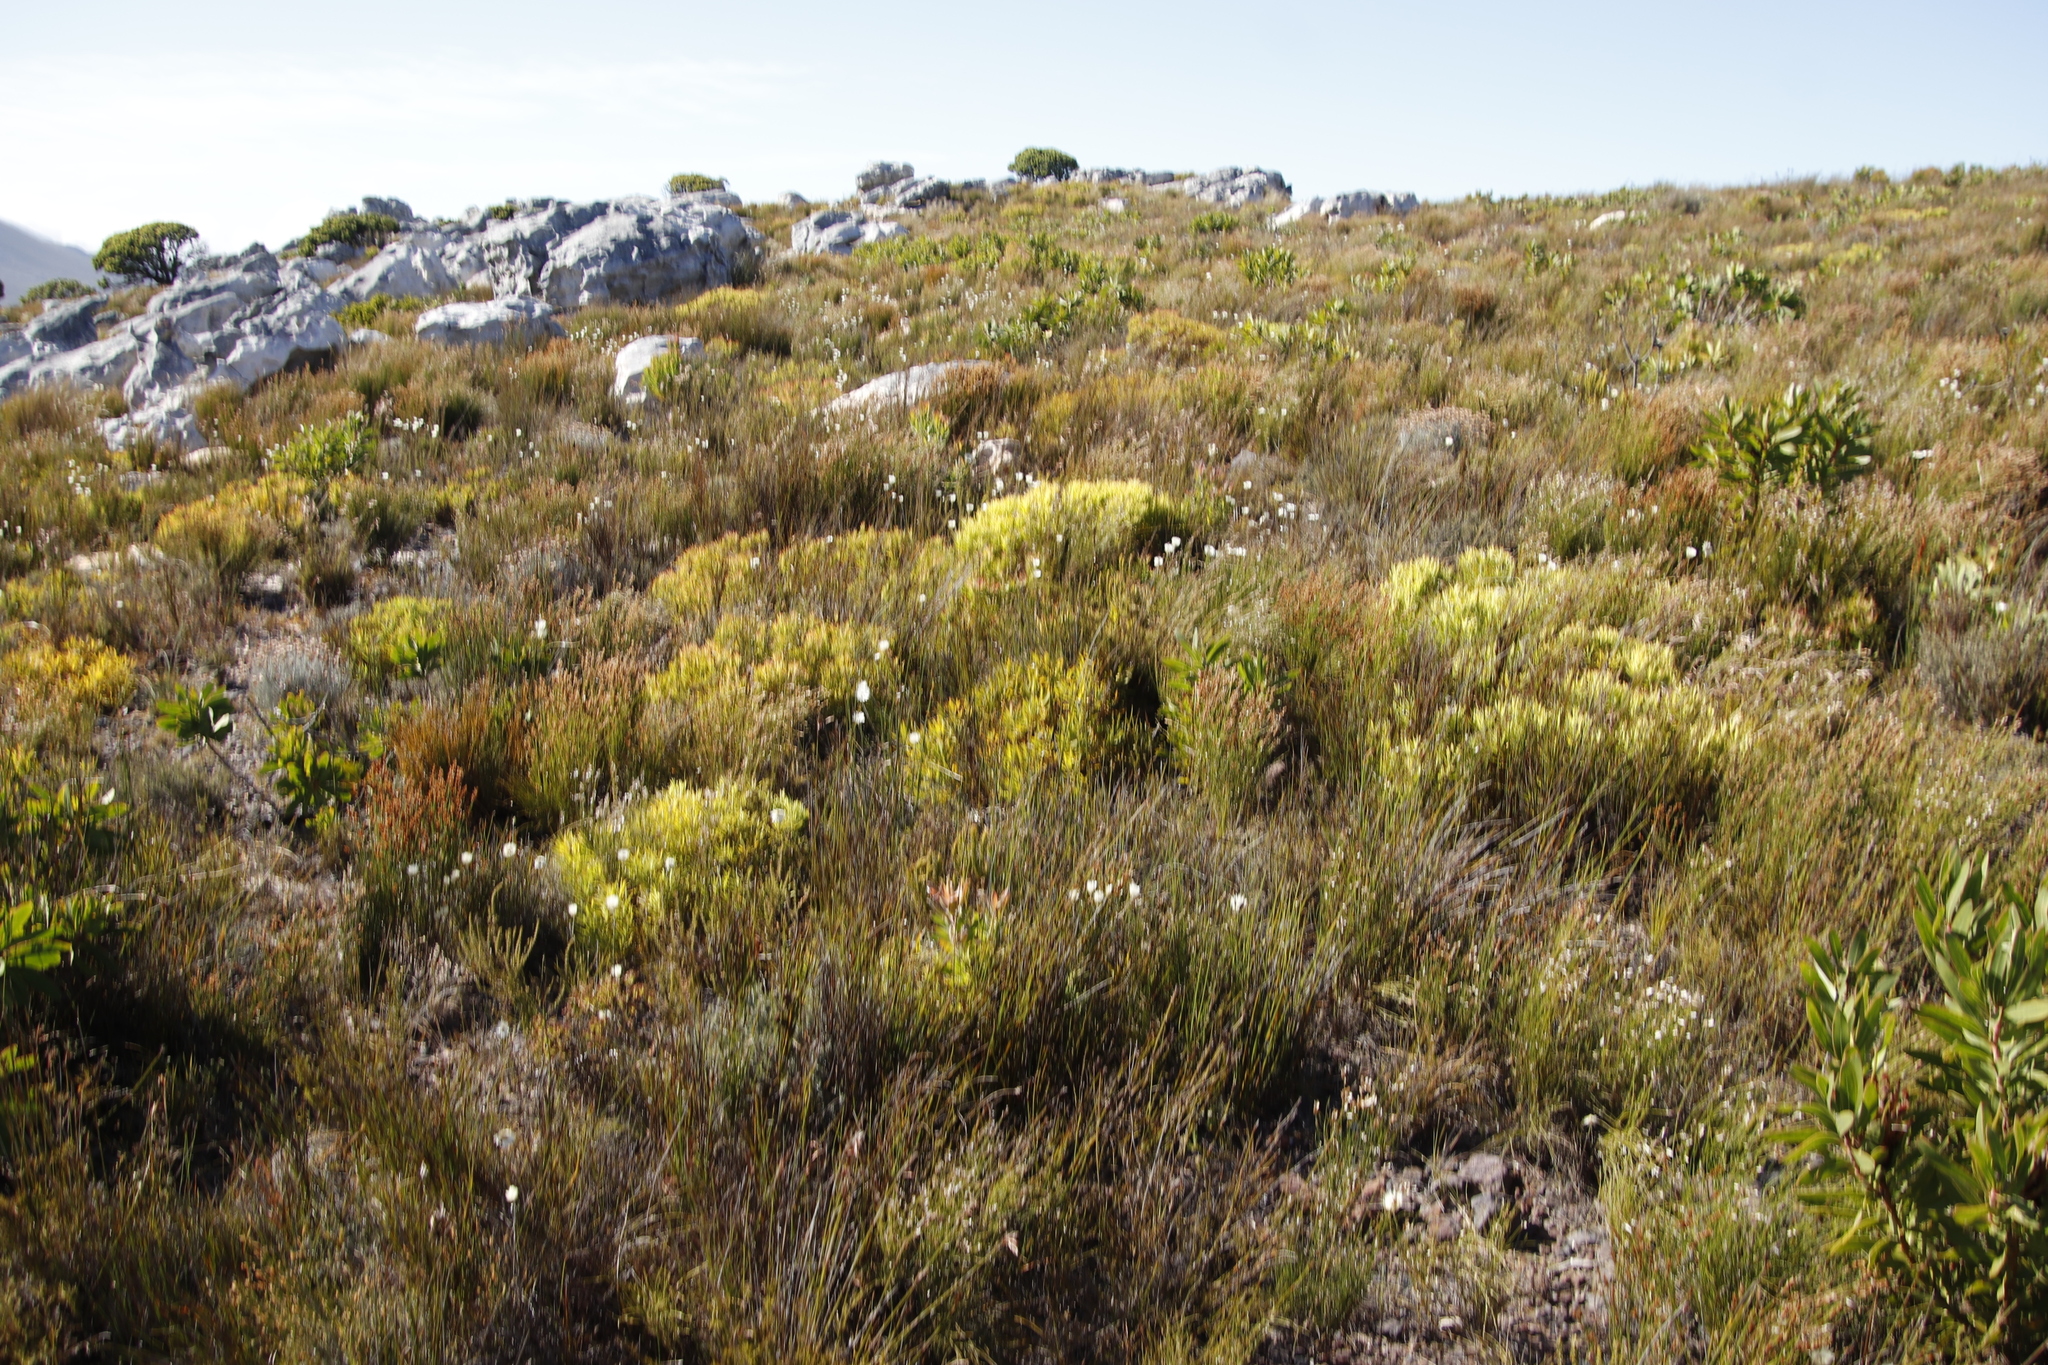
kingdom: Plantae
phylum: Tracheophyta
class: Magnoliopsida
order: Proteales
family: Proteaceae
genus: Leucadendron
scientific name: Leucadendron salignum
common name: Common sunshine conebush
